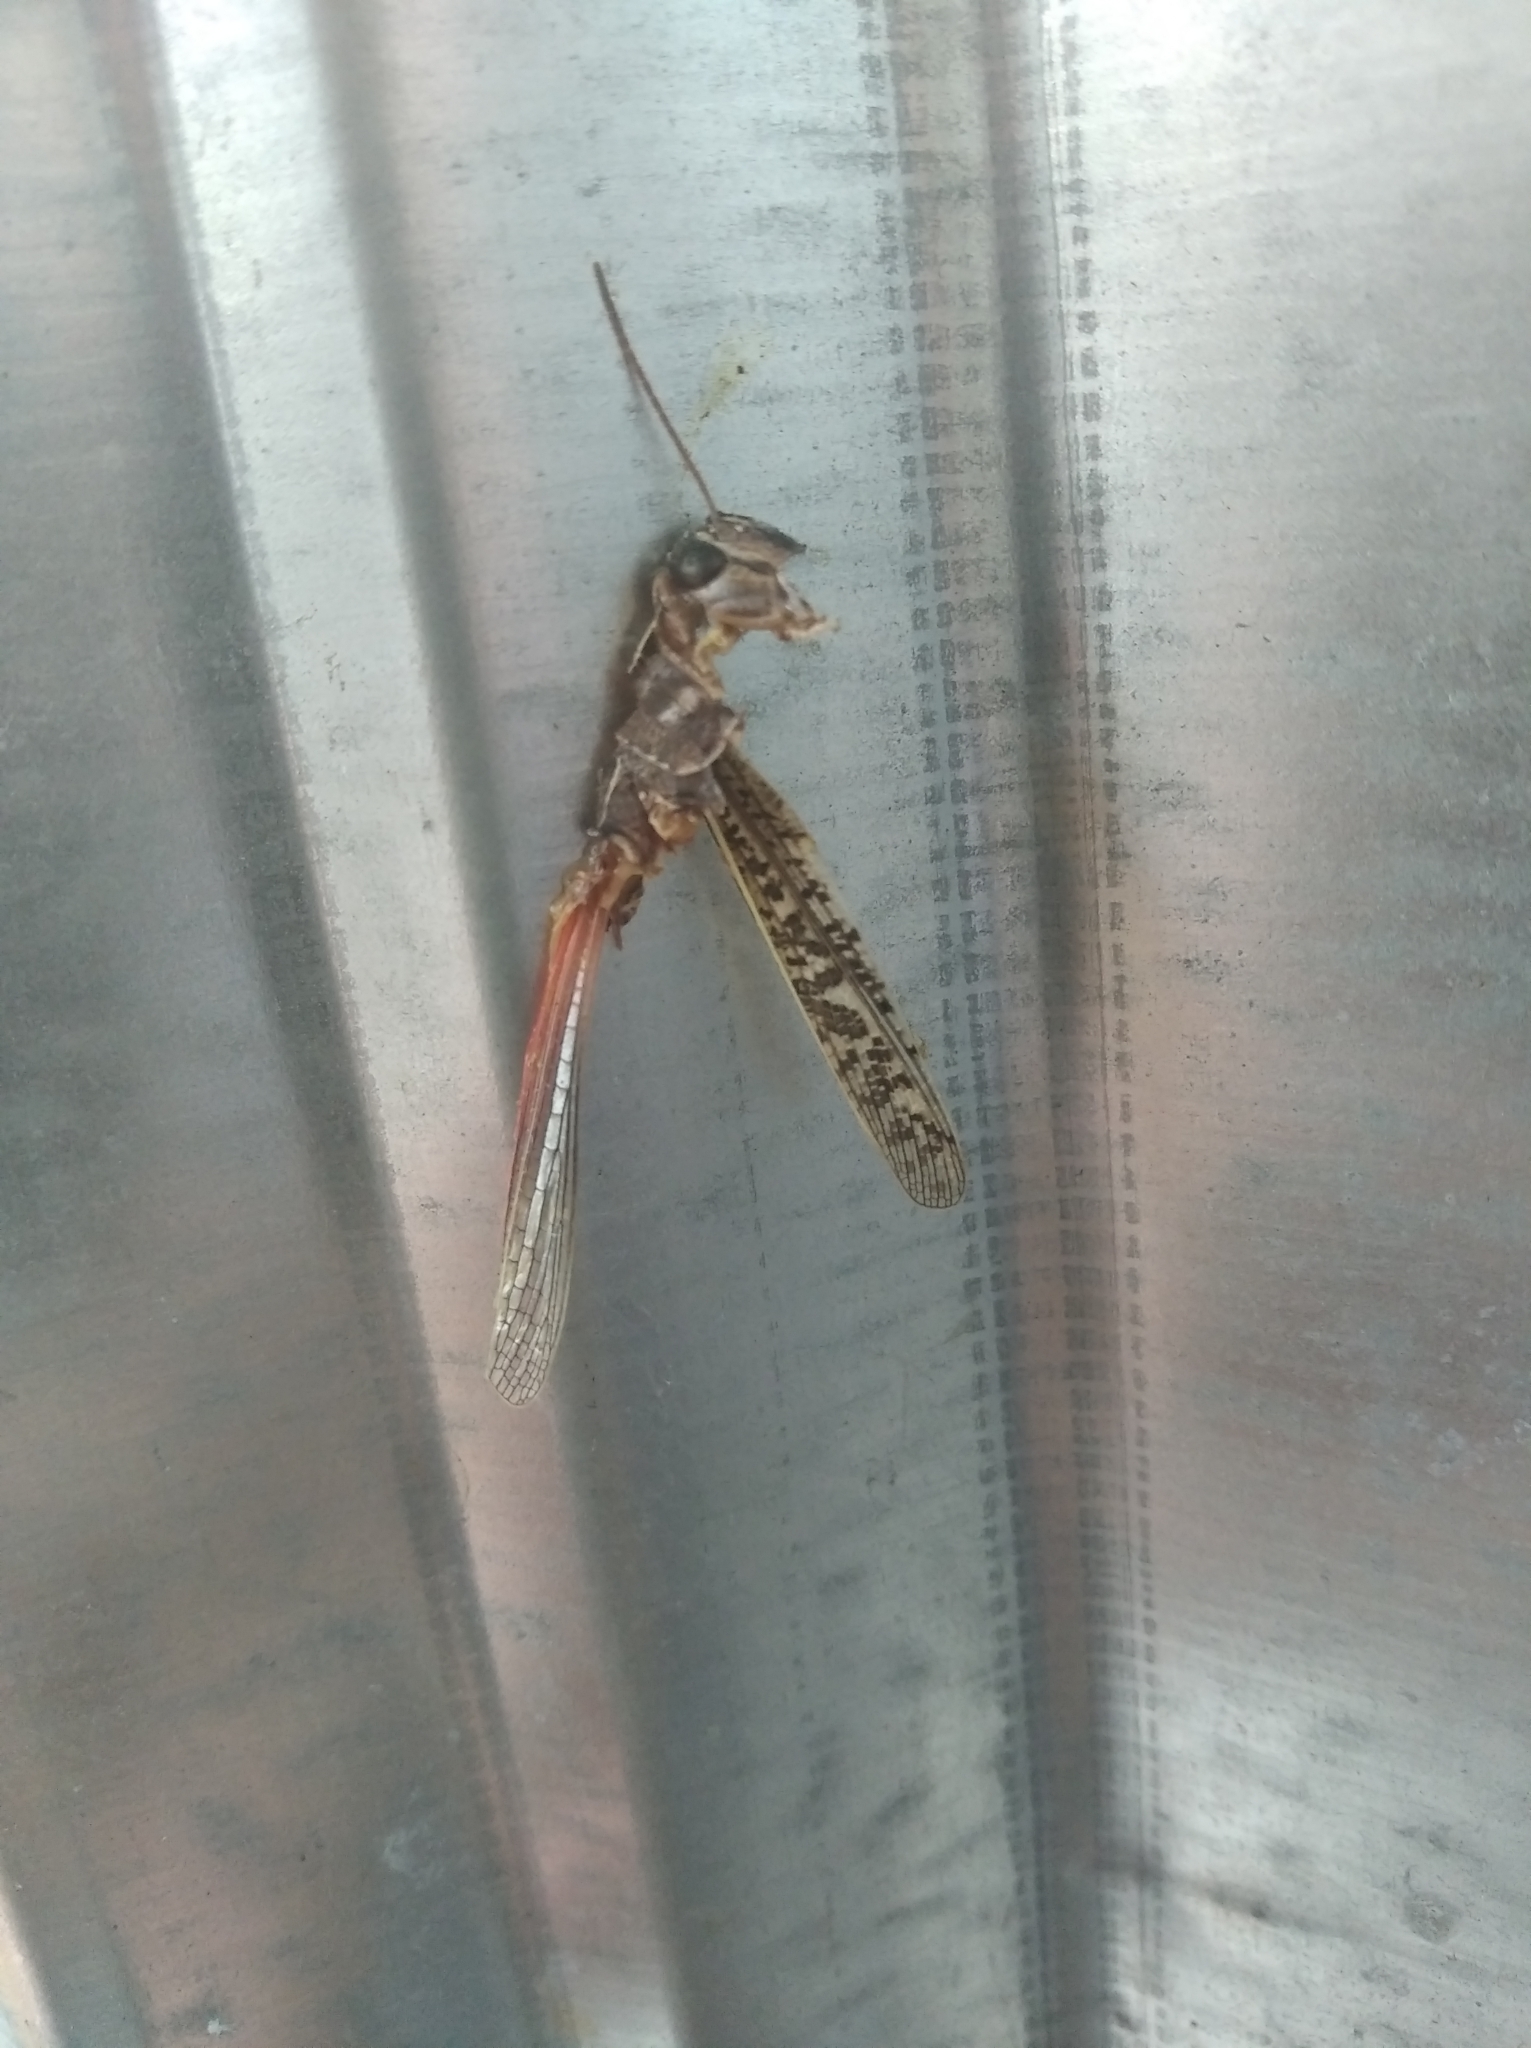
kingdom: Animalia
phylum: Arthropoda
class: Insecta
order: Orthoptera
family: Acrididae
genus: Calliptamus
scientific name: Calliptamus italicus
